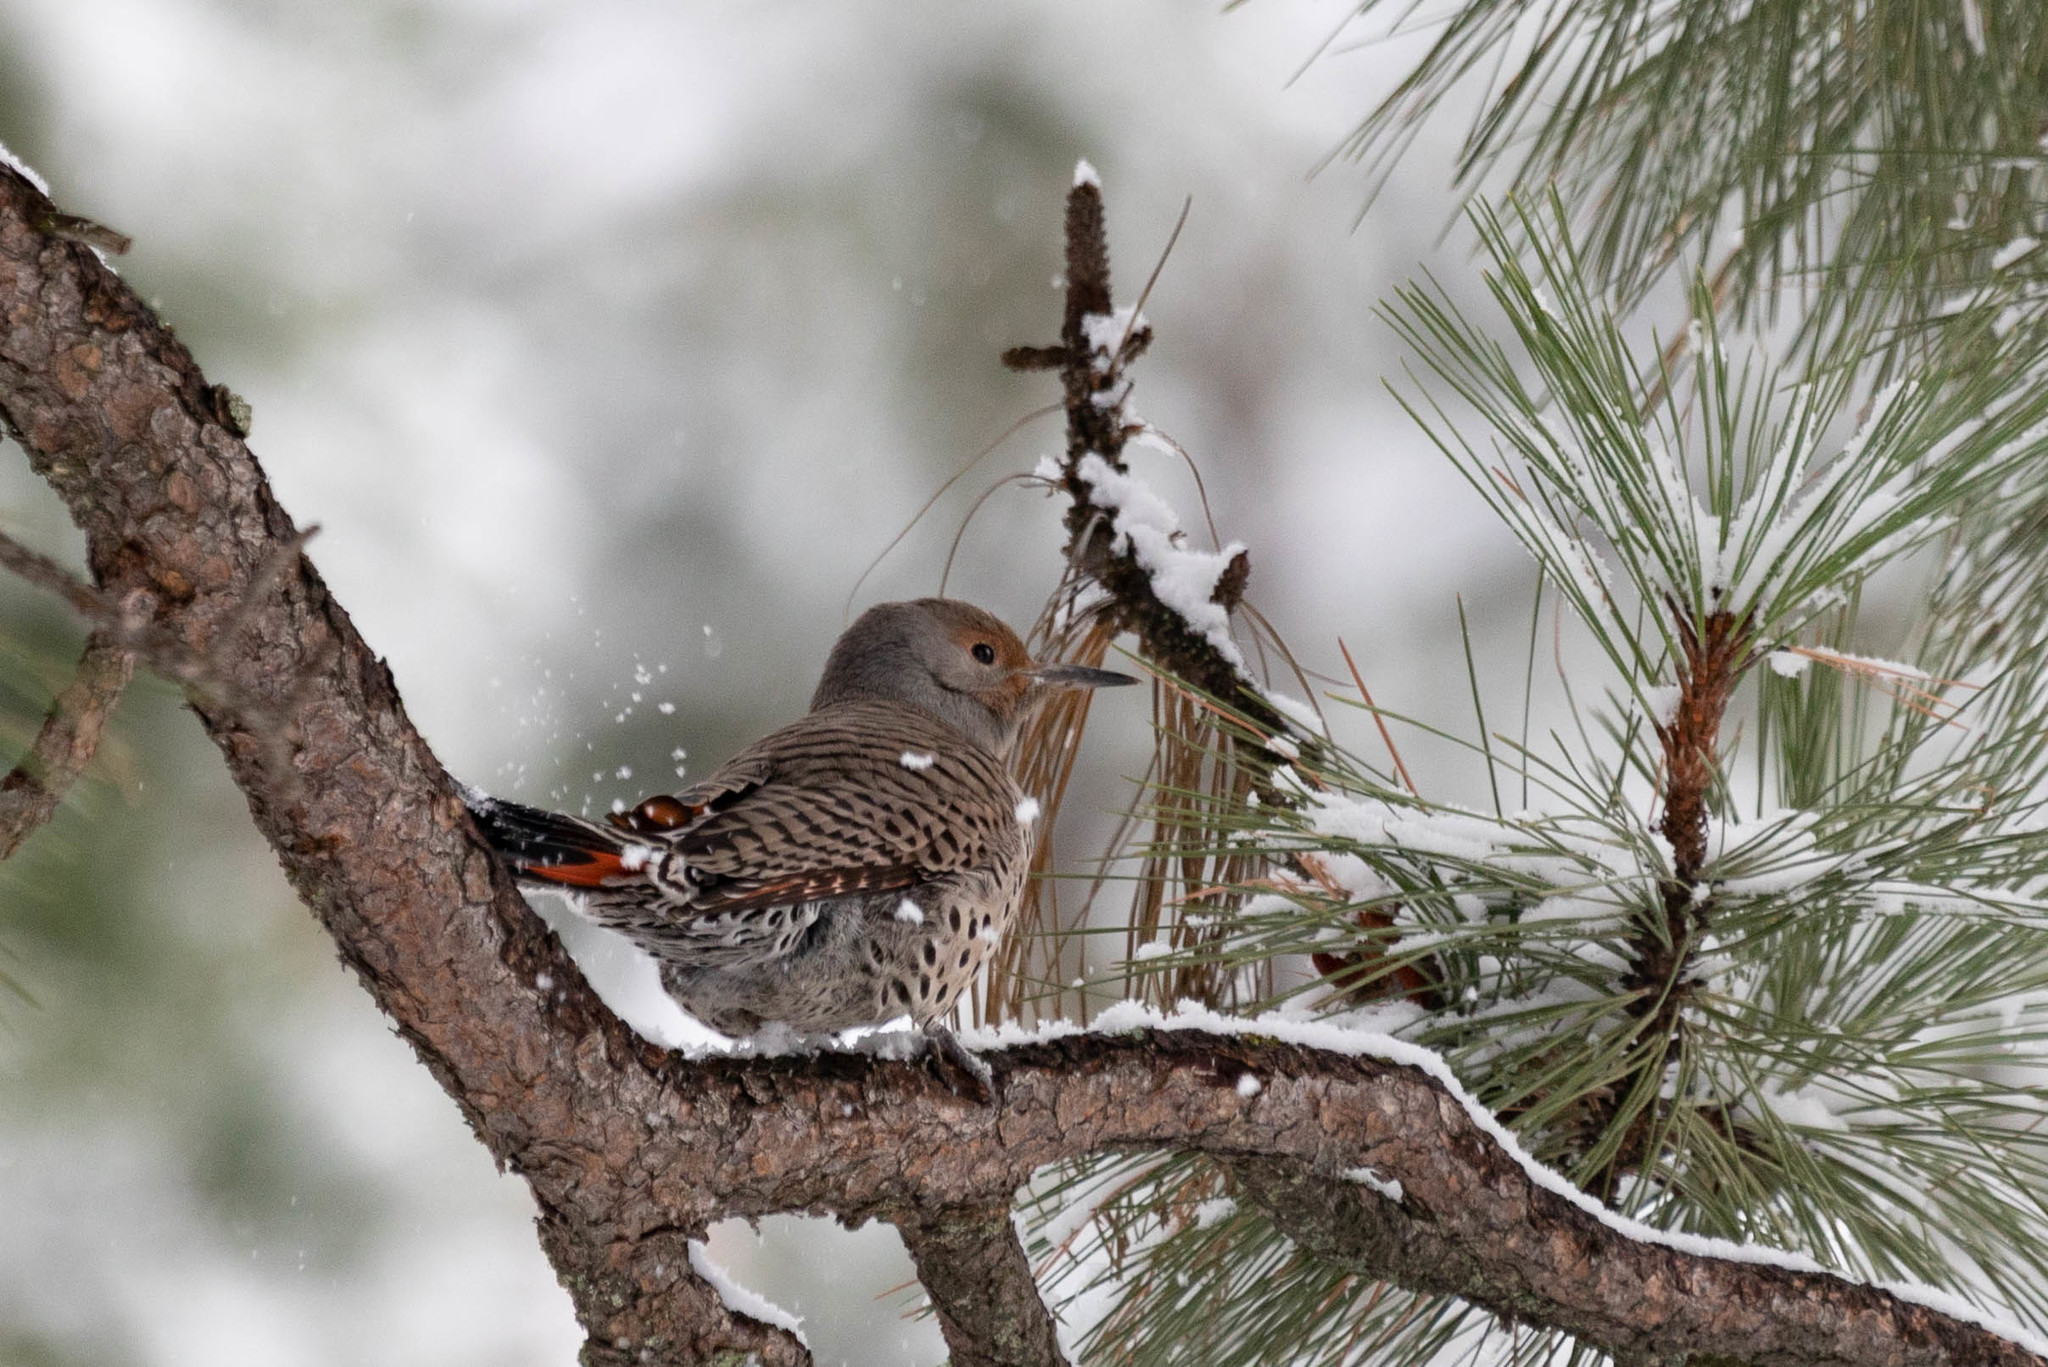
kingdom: Animalia
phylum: Chordata
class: Aves
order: Piciformes
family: Picidae
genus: Colaptes
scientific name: Colaptes auratus
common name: Northern flicker
